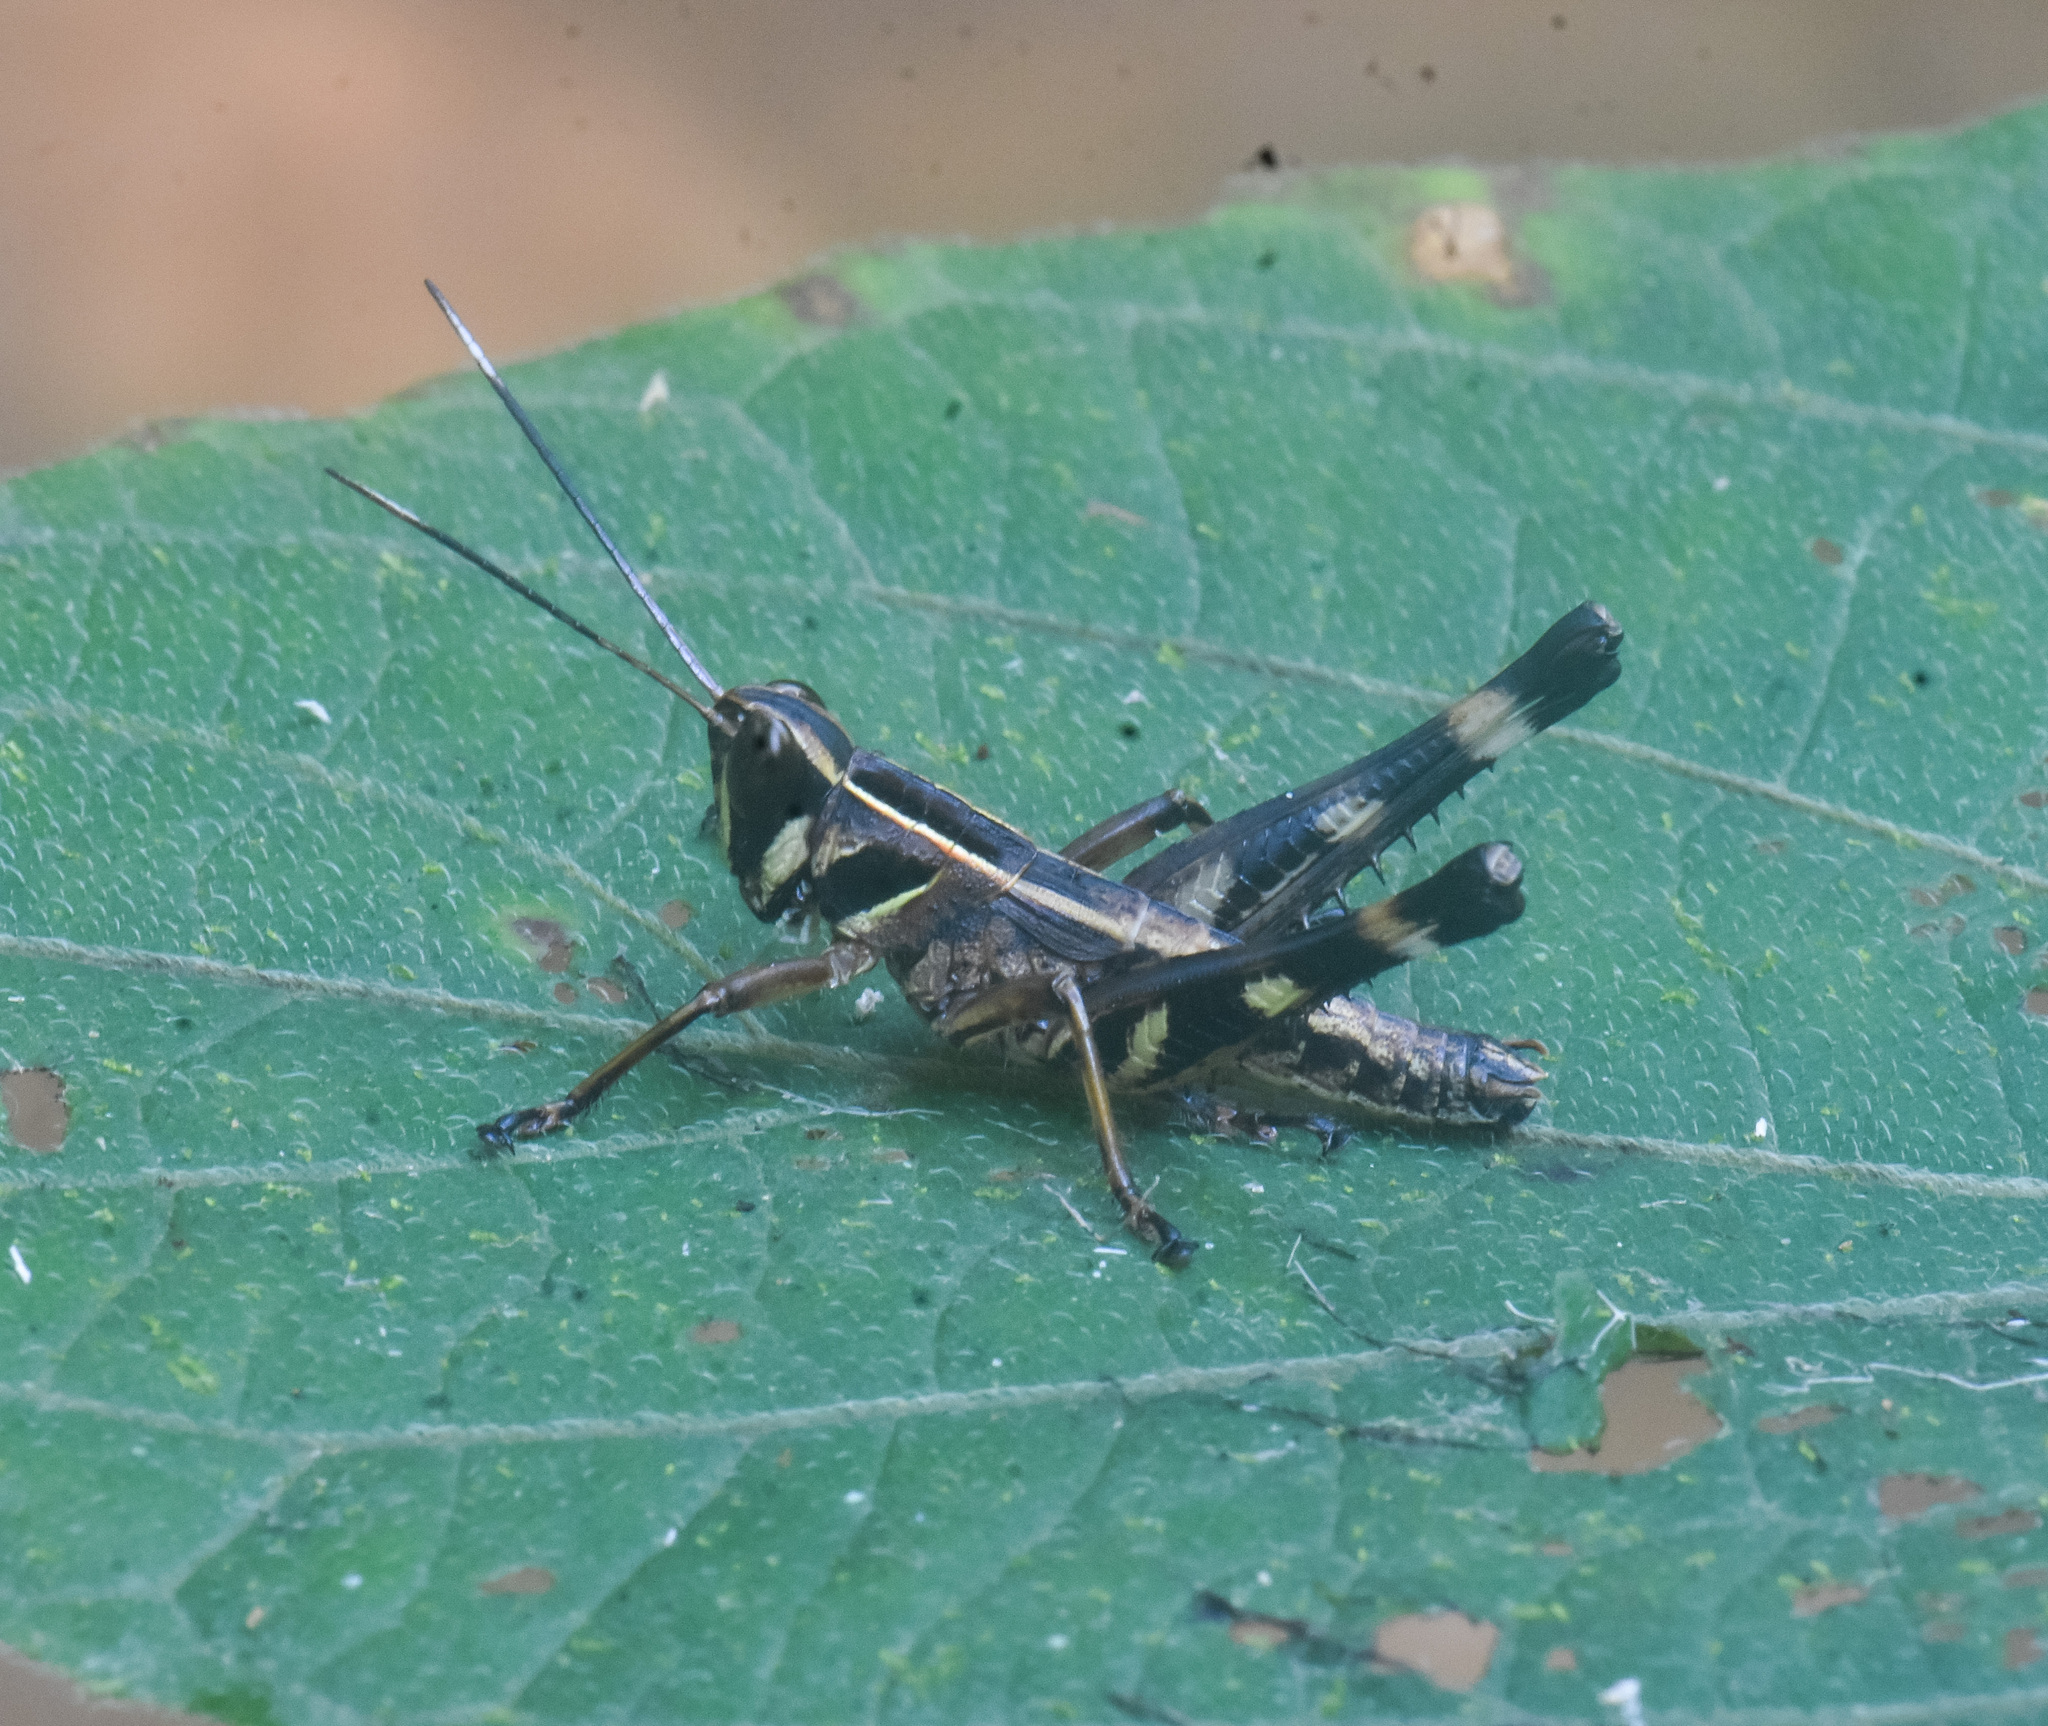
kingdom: Animalia
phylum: Arthropoda
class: Insecta
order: Orthoptera
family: Acrididae
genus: Burmacris
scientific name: Burmacris charlottae
